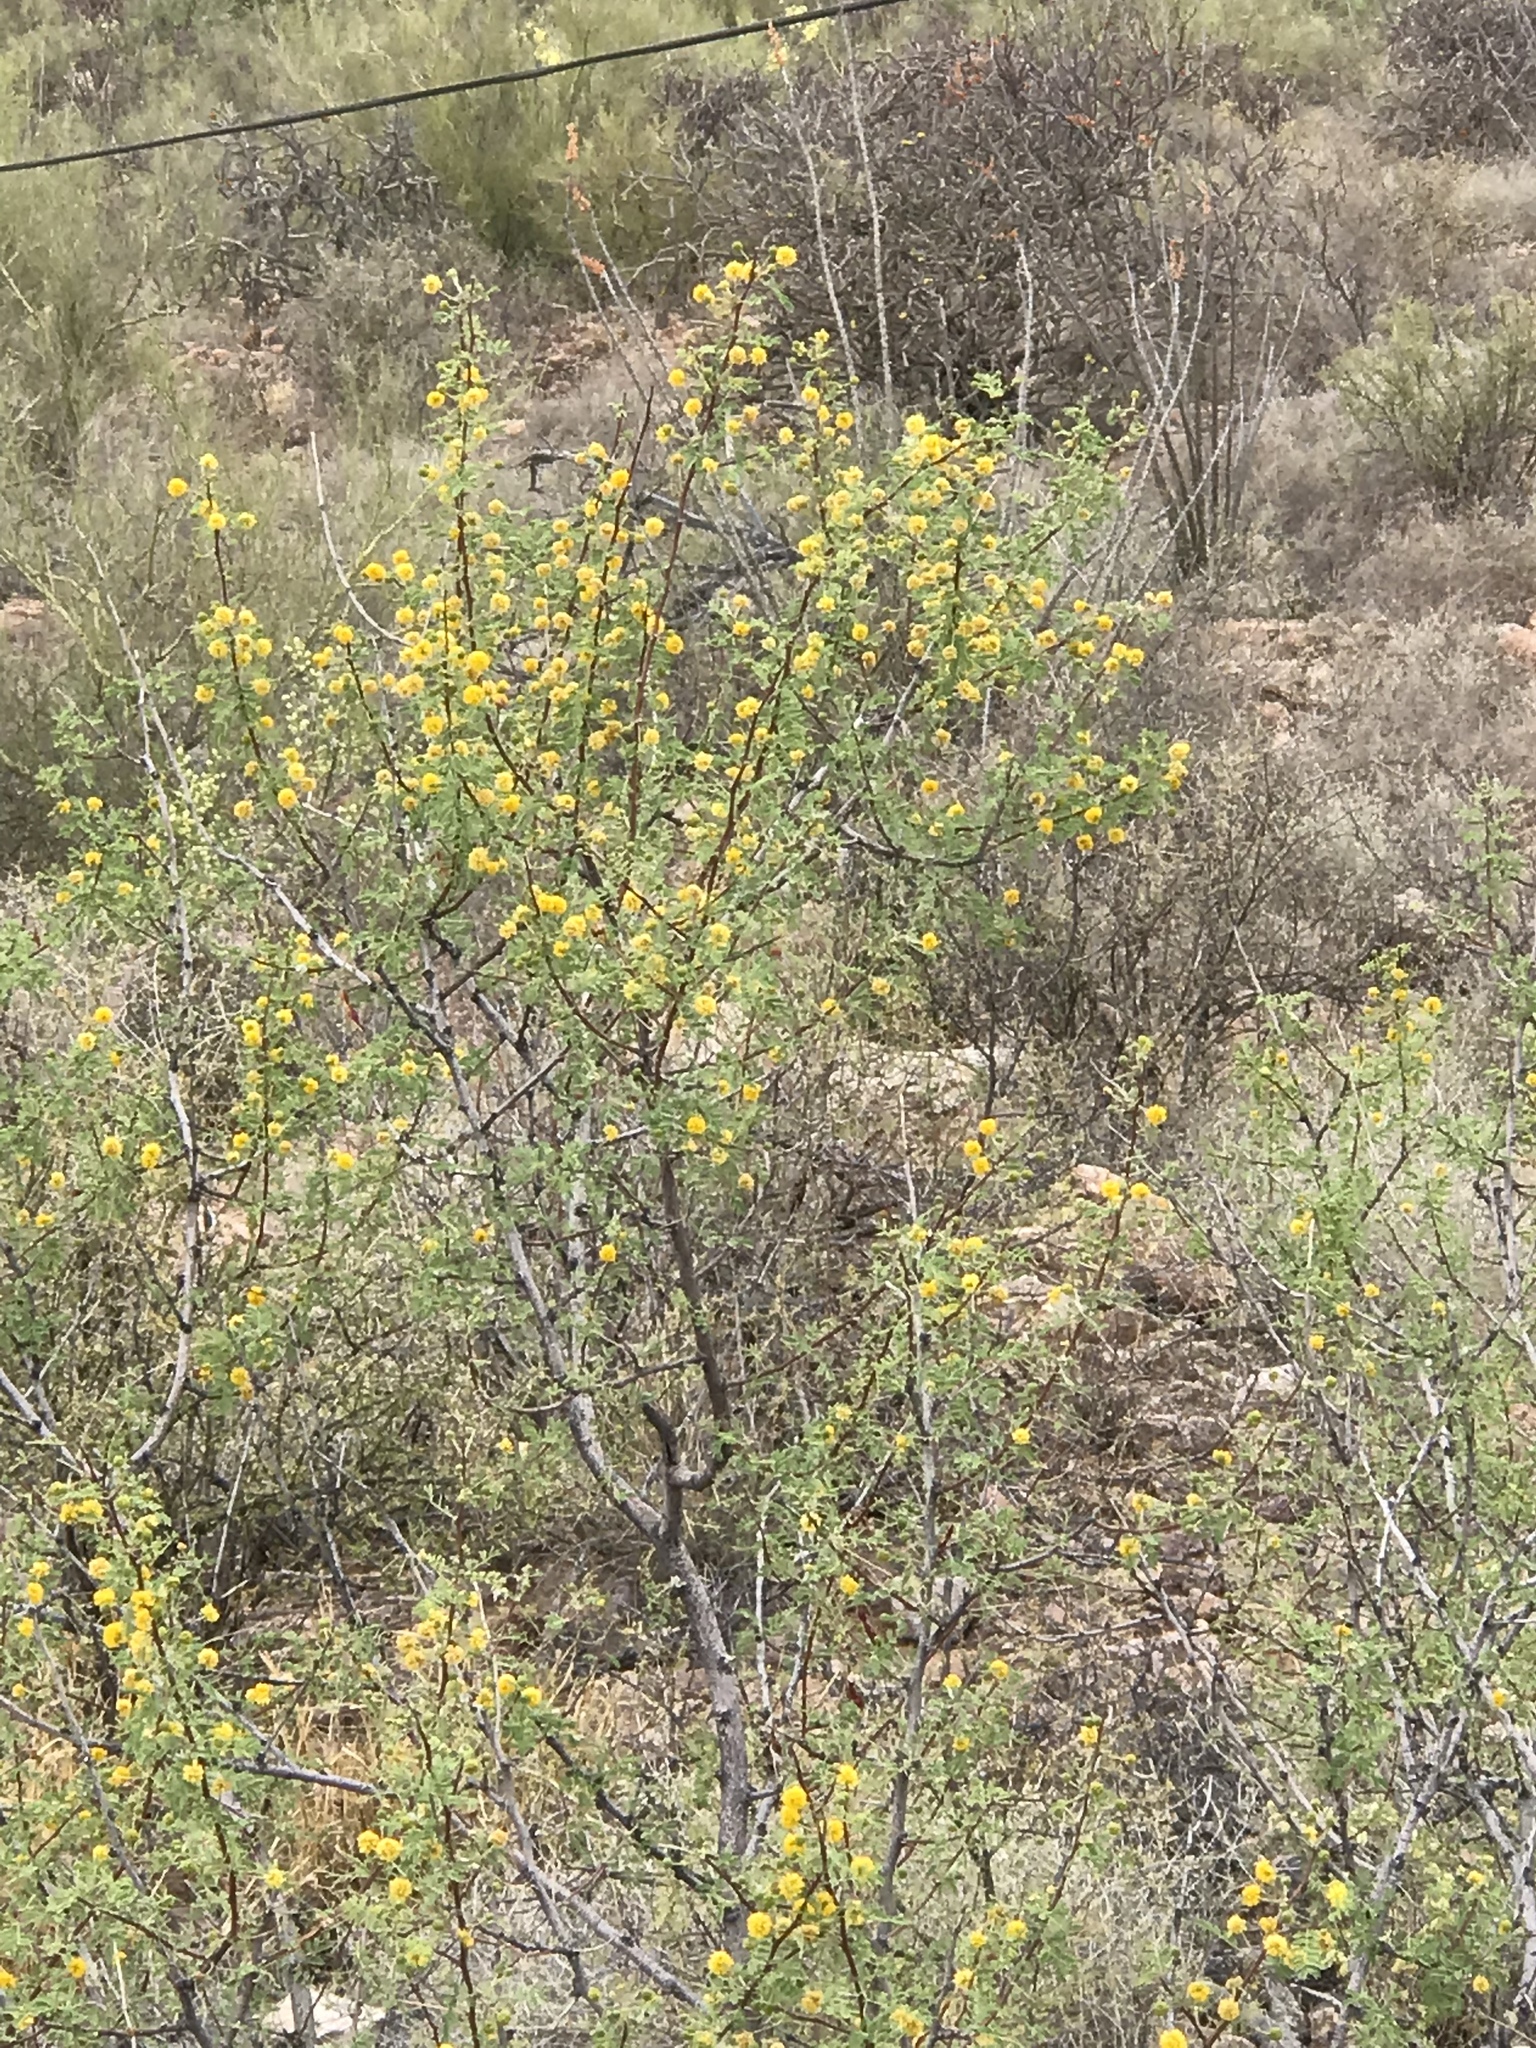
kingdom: Plantae
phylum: Tracheophyta
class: Magnoliopsida
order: Fabales
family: Fabaceae
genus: Vachellia
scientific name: Vachellia farnesiana
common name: Sweet acacia
